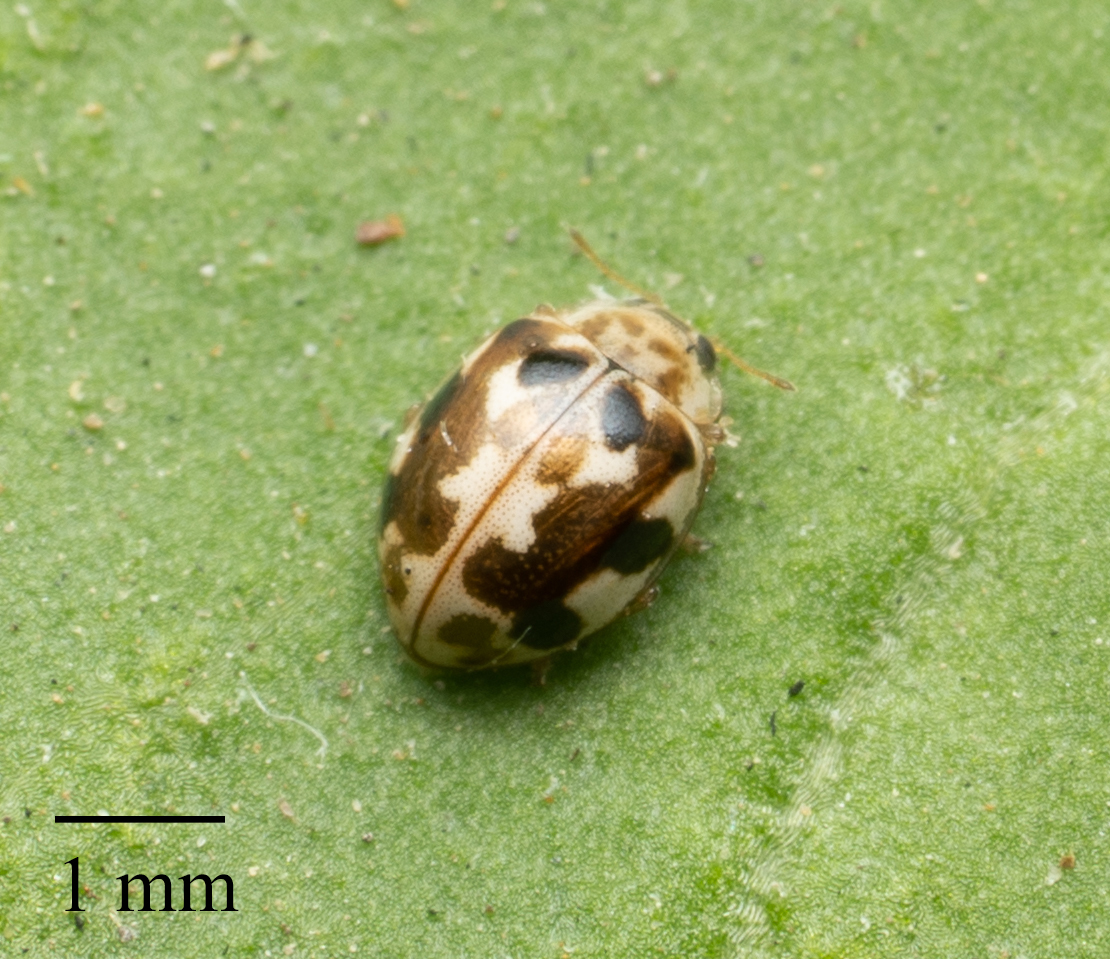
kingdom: Animalia
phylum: Arthropoda
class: Insecta
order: Coleoptera
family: Coccinellidae
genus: Psyllobora
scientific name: Psyllobora vigintimaculata
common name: Ladybird beetle
